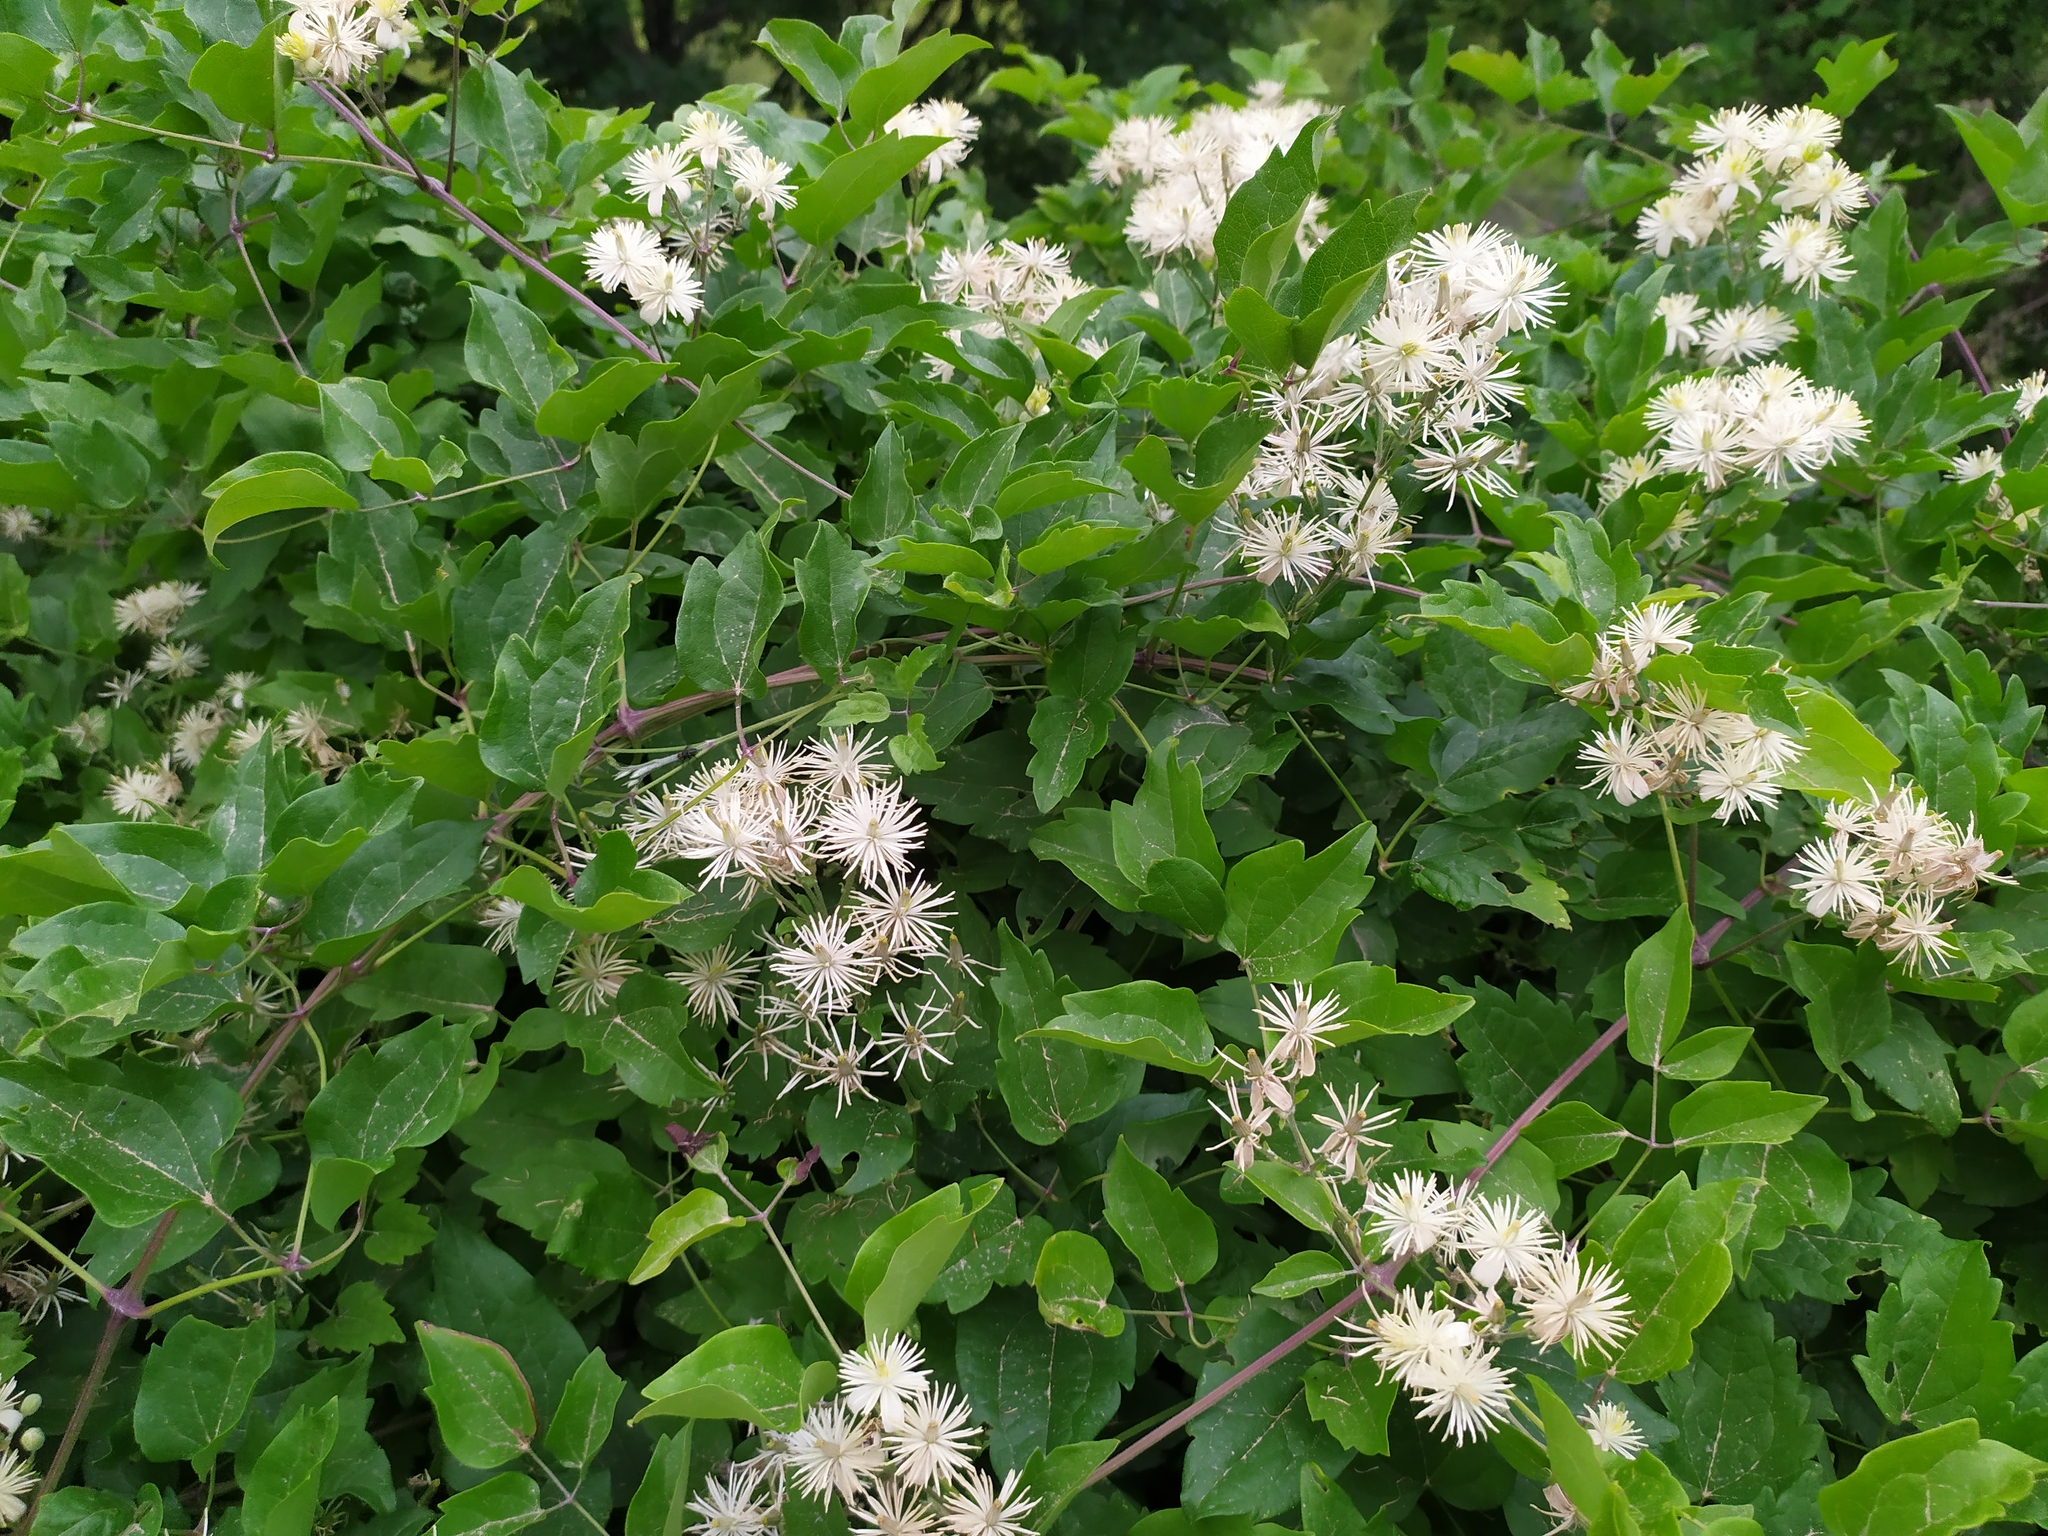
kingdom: Plantae
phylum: Tracheophyta
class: Magnoliopsida
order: Ranunculales
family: Ranunculaceae
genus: Clematis
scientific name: Clematis vitalba
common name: Evergreen clematis
